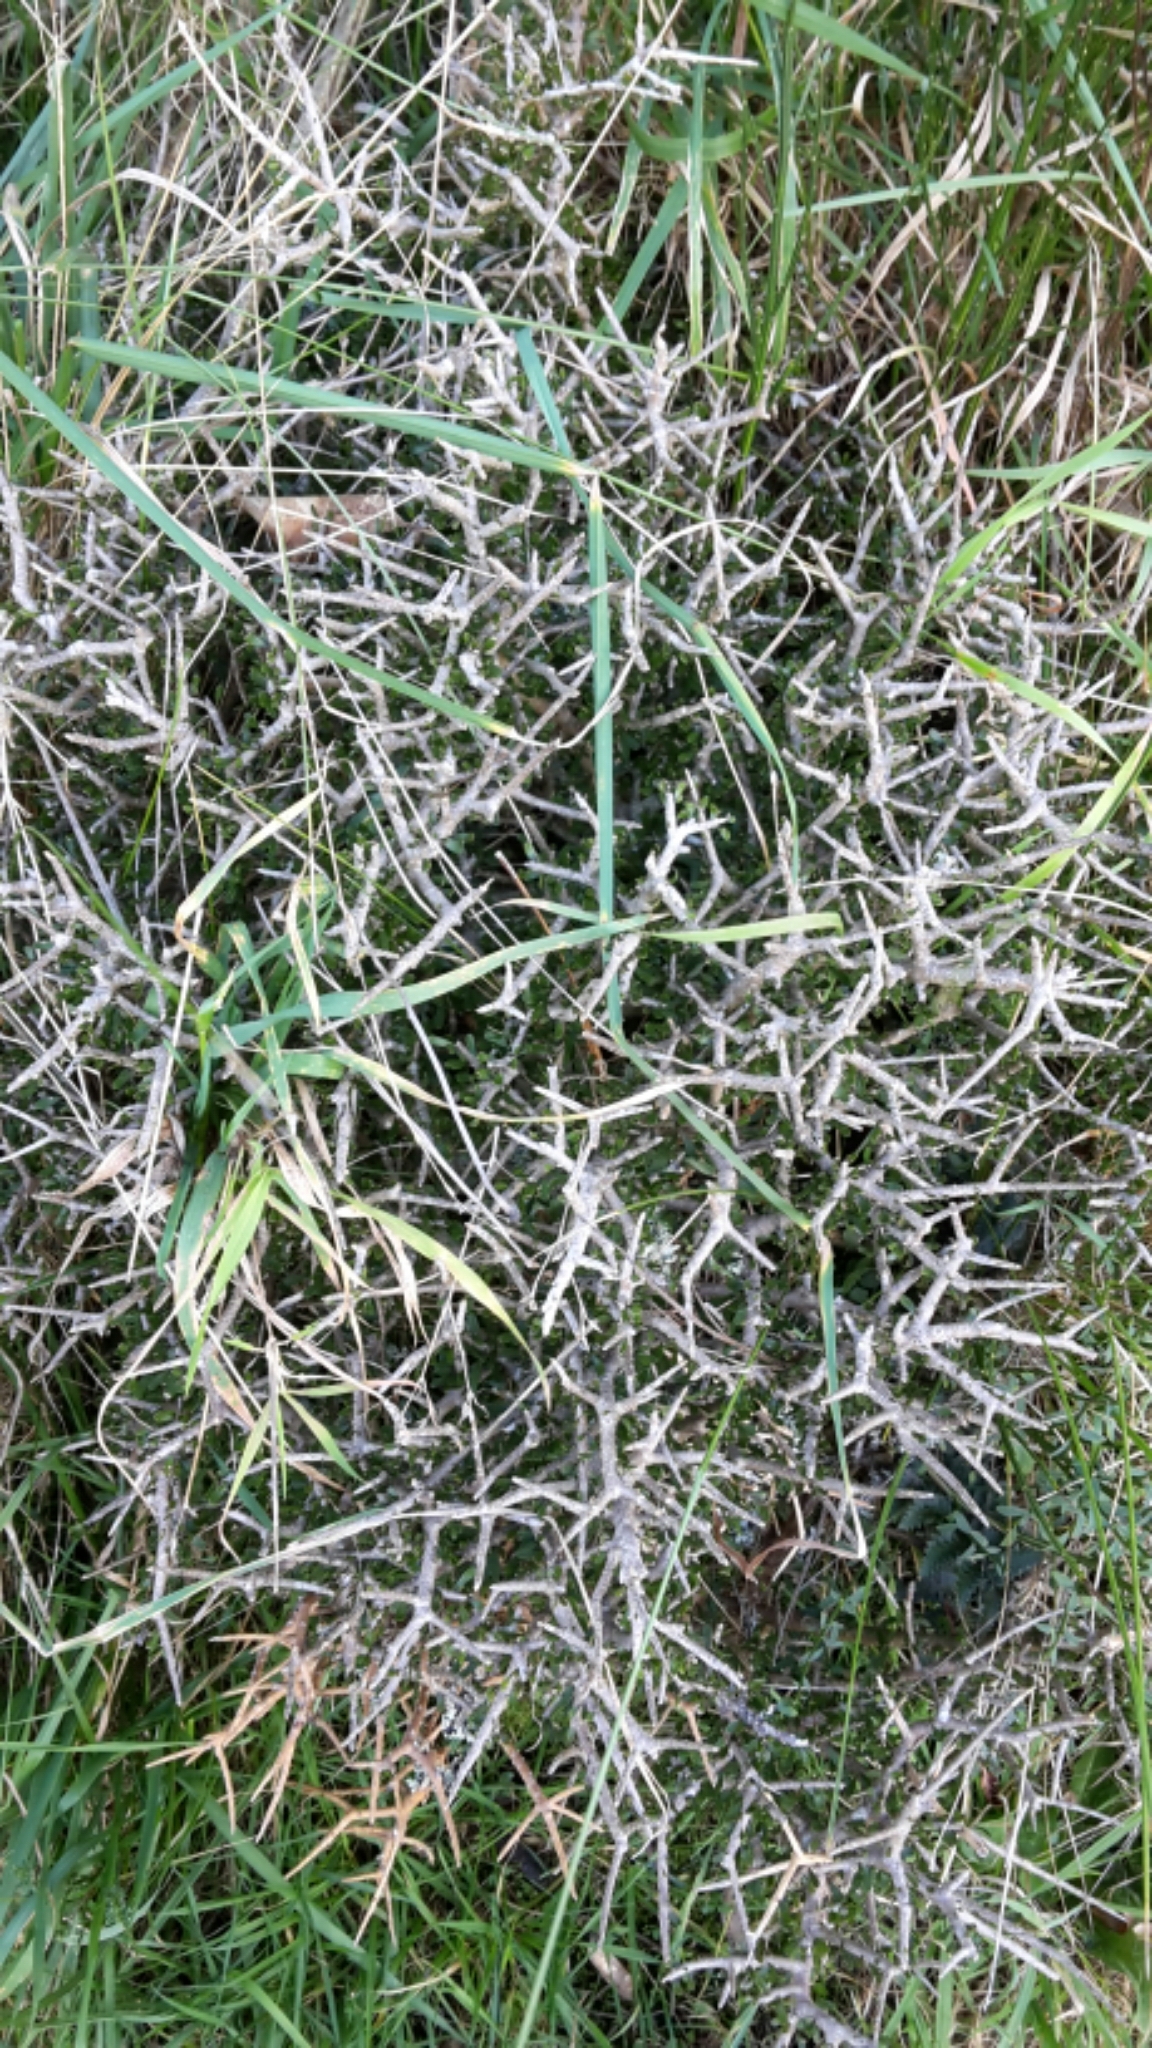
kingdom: Plantae
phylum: Tracheophyta
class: Magnoliopsida
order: Malpighiales
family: Violaceae
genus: Melicytus
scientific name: Melicytus alpinus
